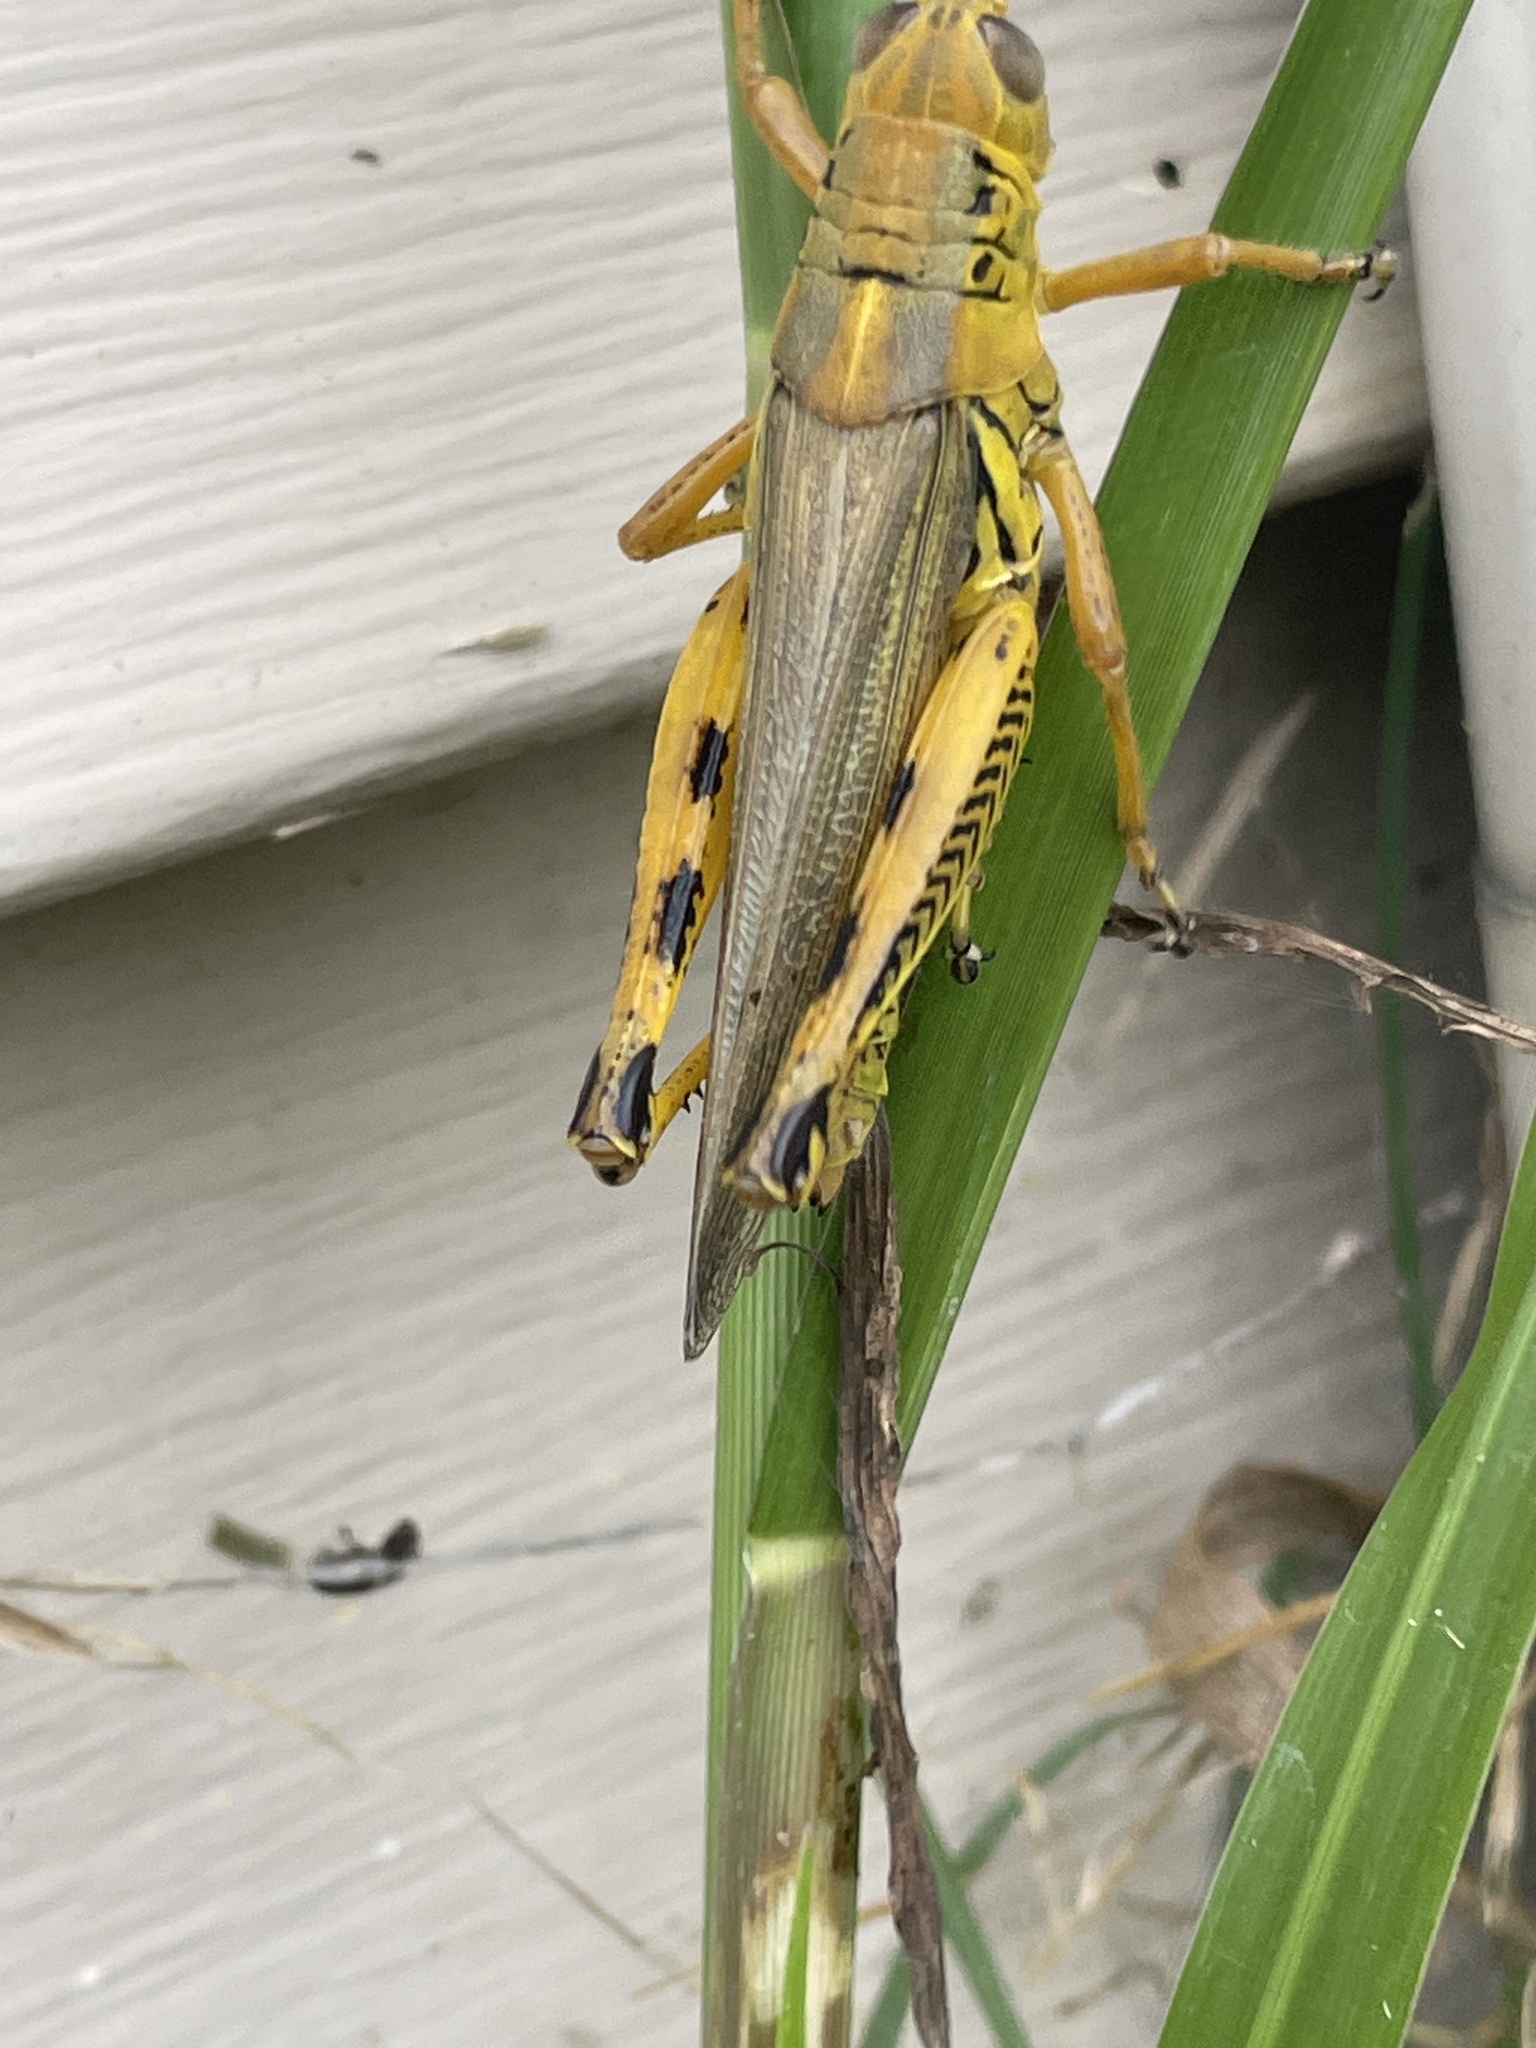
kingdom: Animalia
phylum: Arthropoda
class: Insecta
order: Orthoptera
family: Acrididae
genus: Melanoplus
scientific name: Melanoplus differentialis
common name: Differential grasshopper
